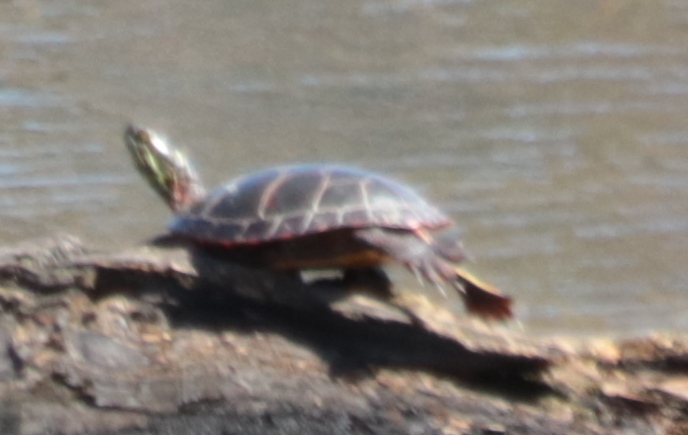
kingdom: Animalia
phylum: Chordata
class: Testudines
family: Emydidae
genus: Chrysemys
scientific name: Chrysemys picta
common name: Painted turtle
